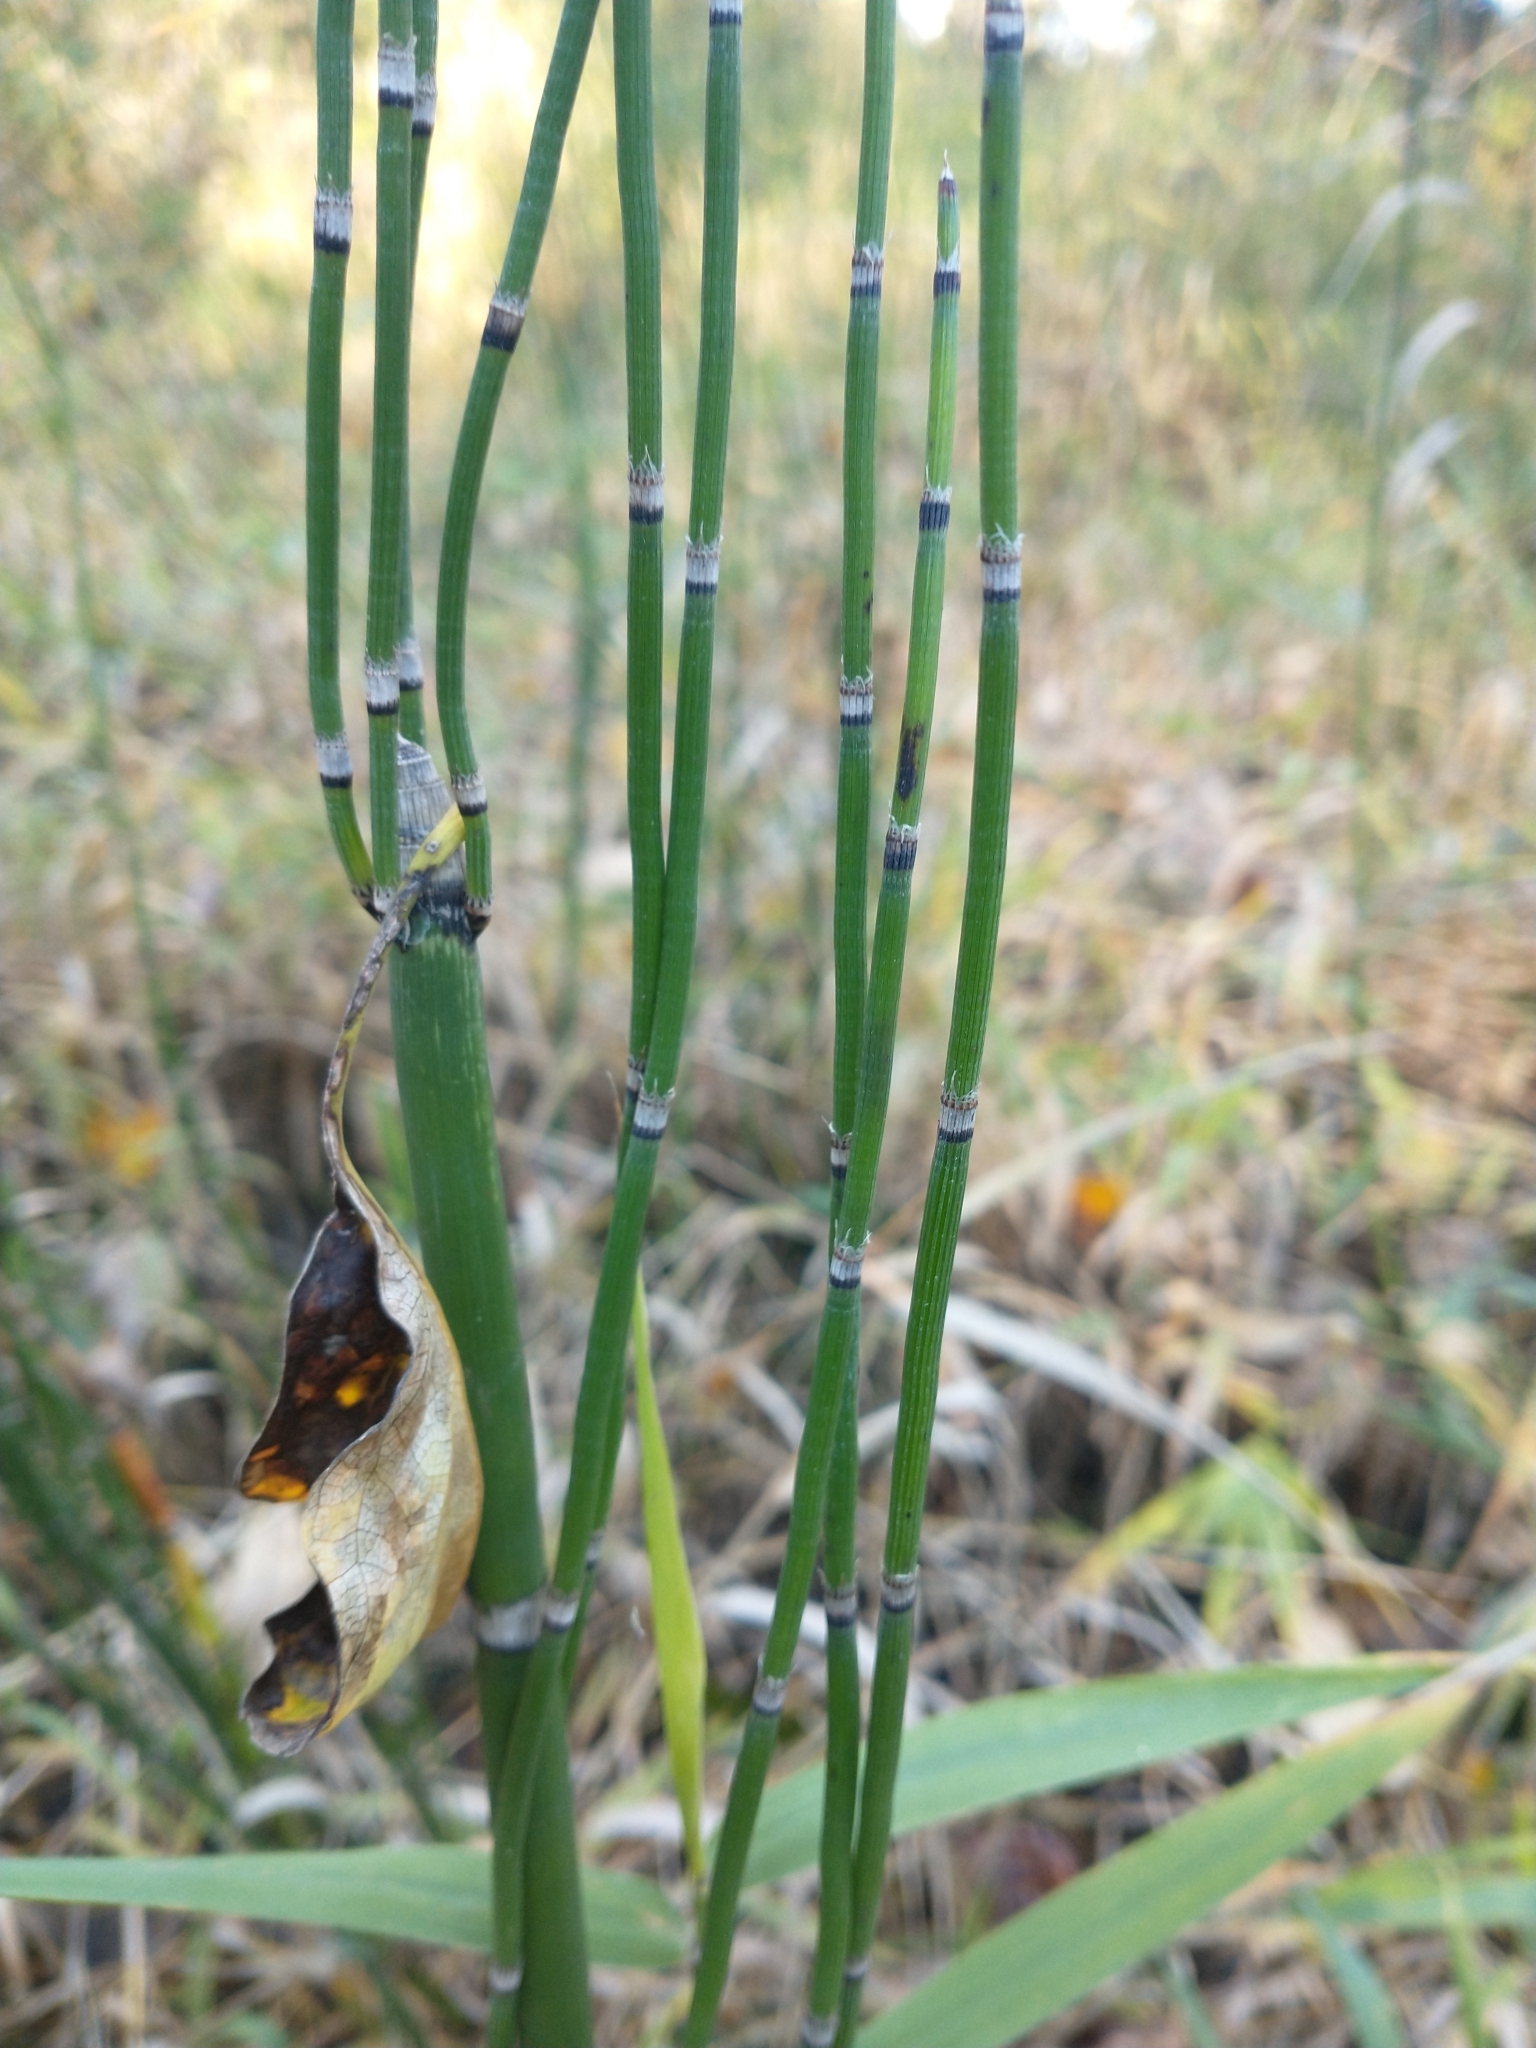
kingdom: Plantae
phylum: Tracheophyta
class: Polypodiopsida
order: Equisetales
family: Equisetaceae
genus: Equisetum
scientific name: Equisetum praealtum
